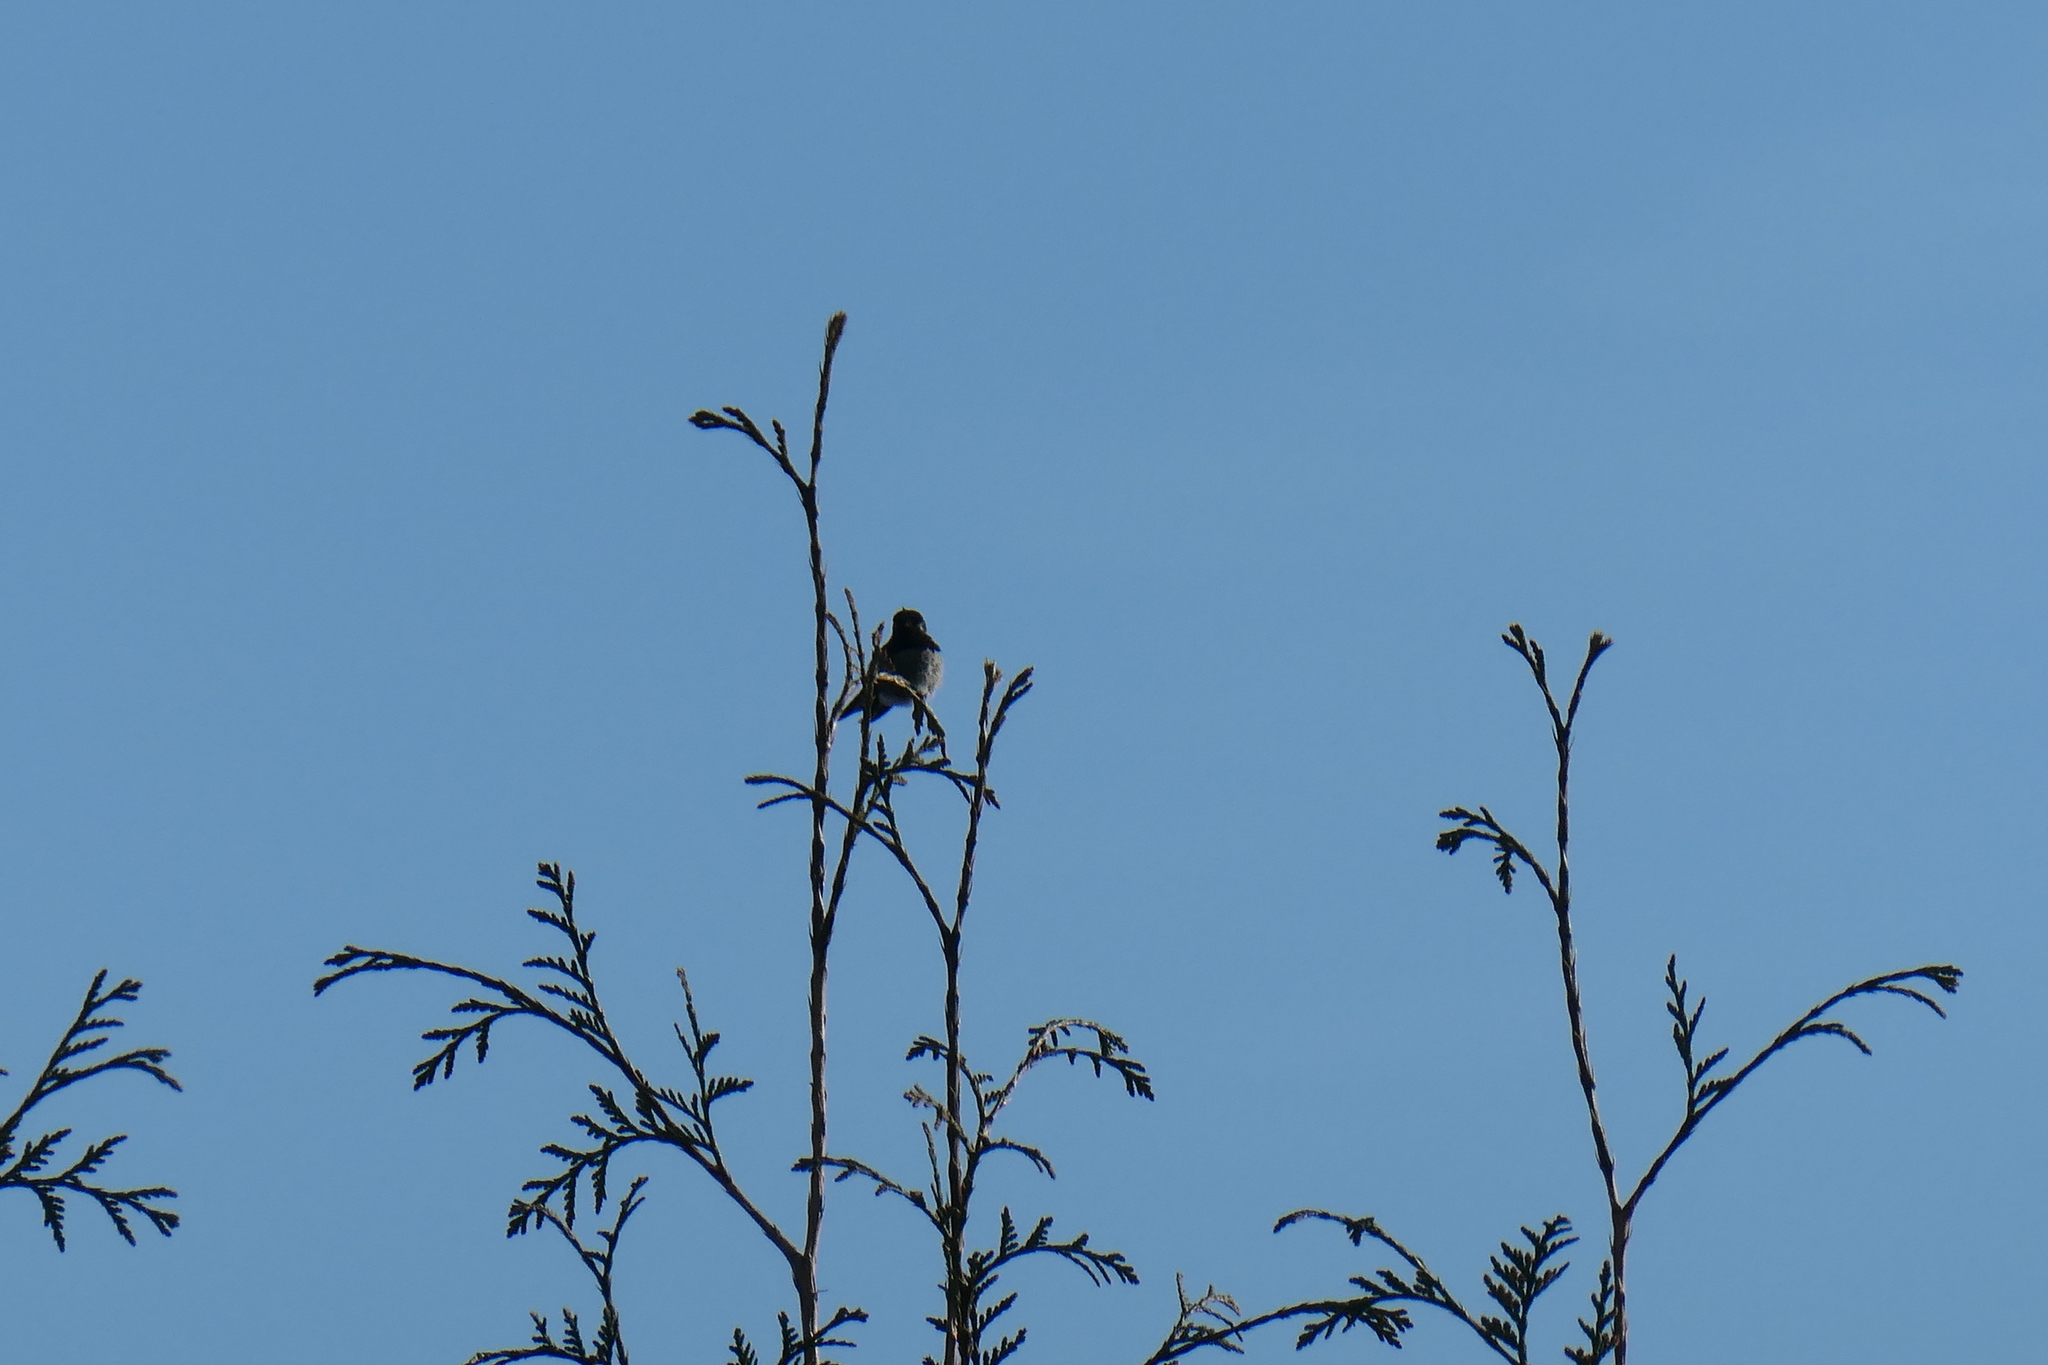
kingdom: Animalia
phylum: Chordata
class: Aves
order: Apodiformes
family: Trochilidae
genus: Calypte
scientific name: Calypte anna
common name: Anna's hummingbird
